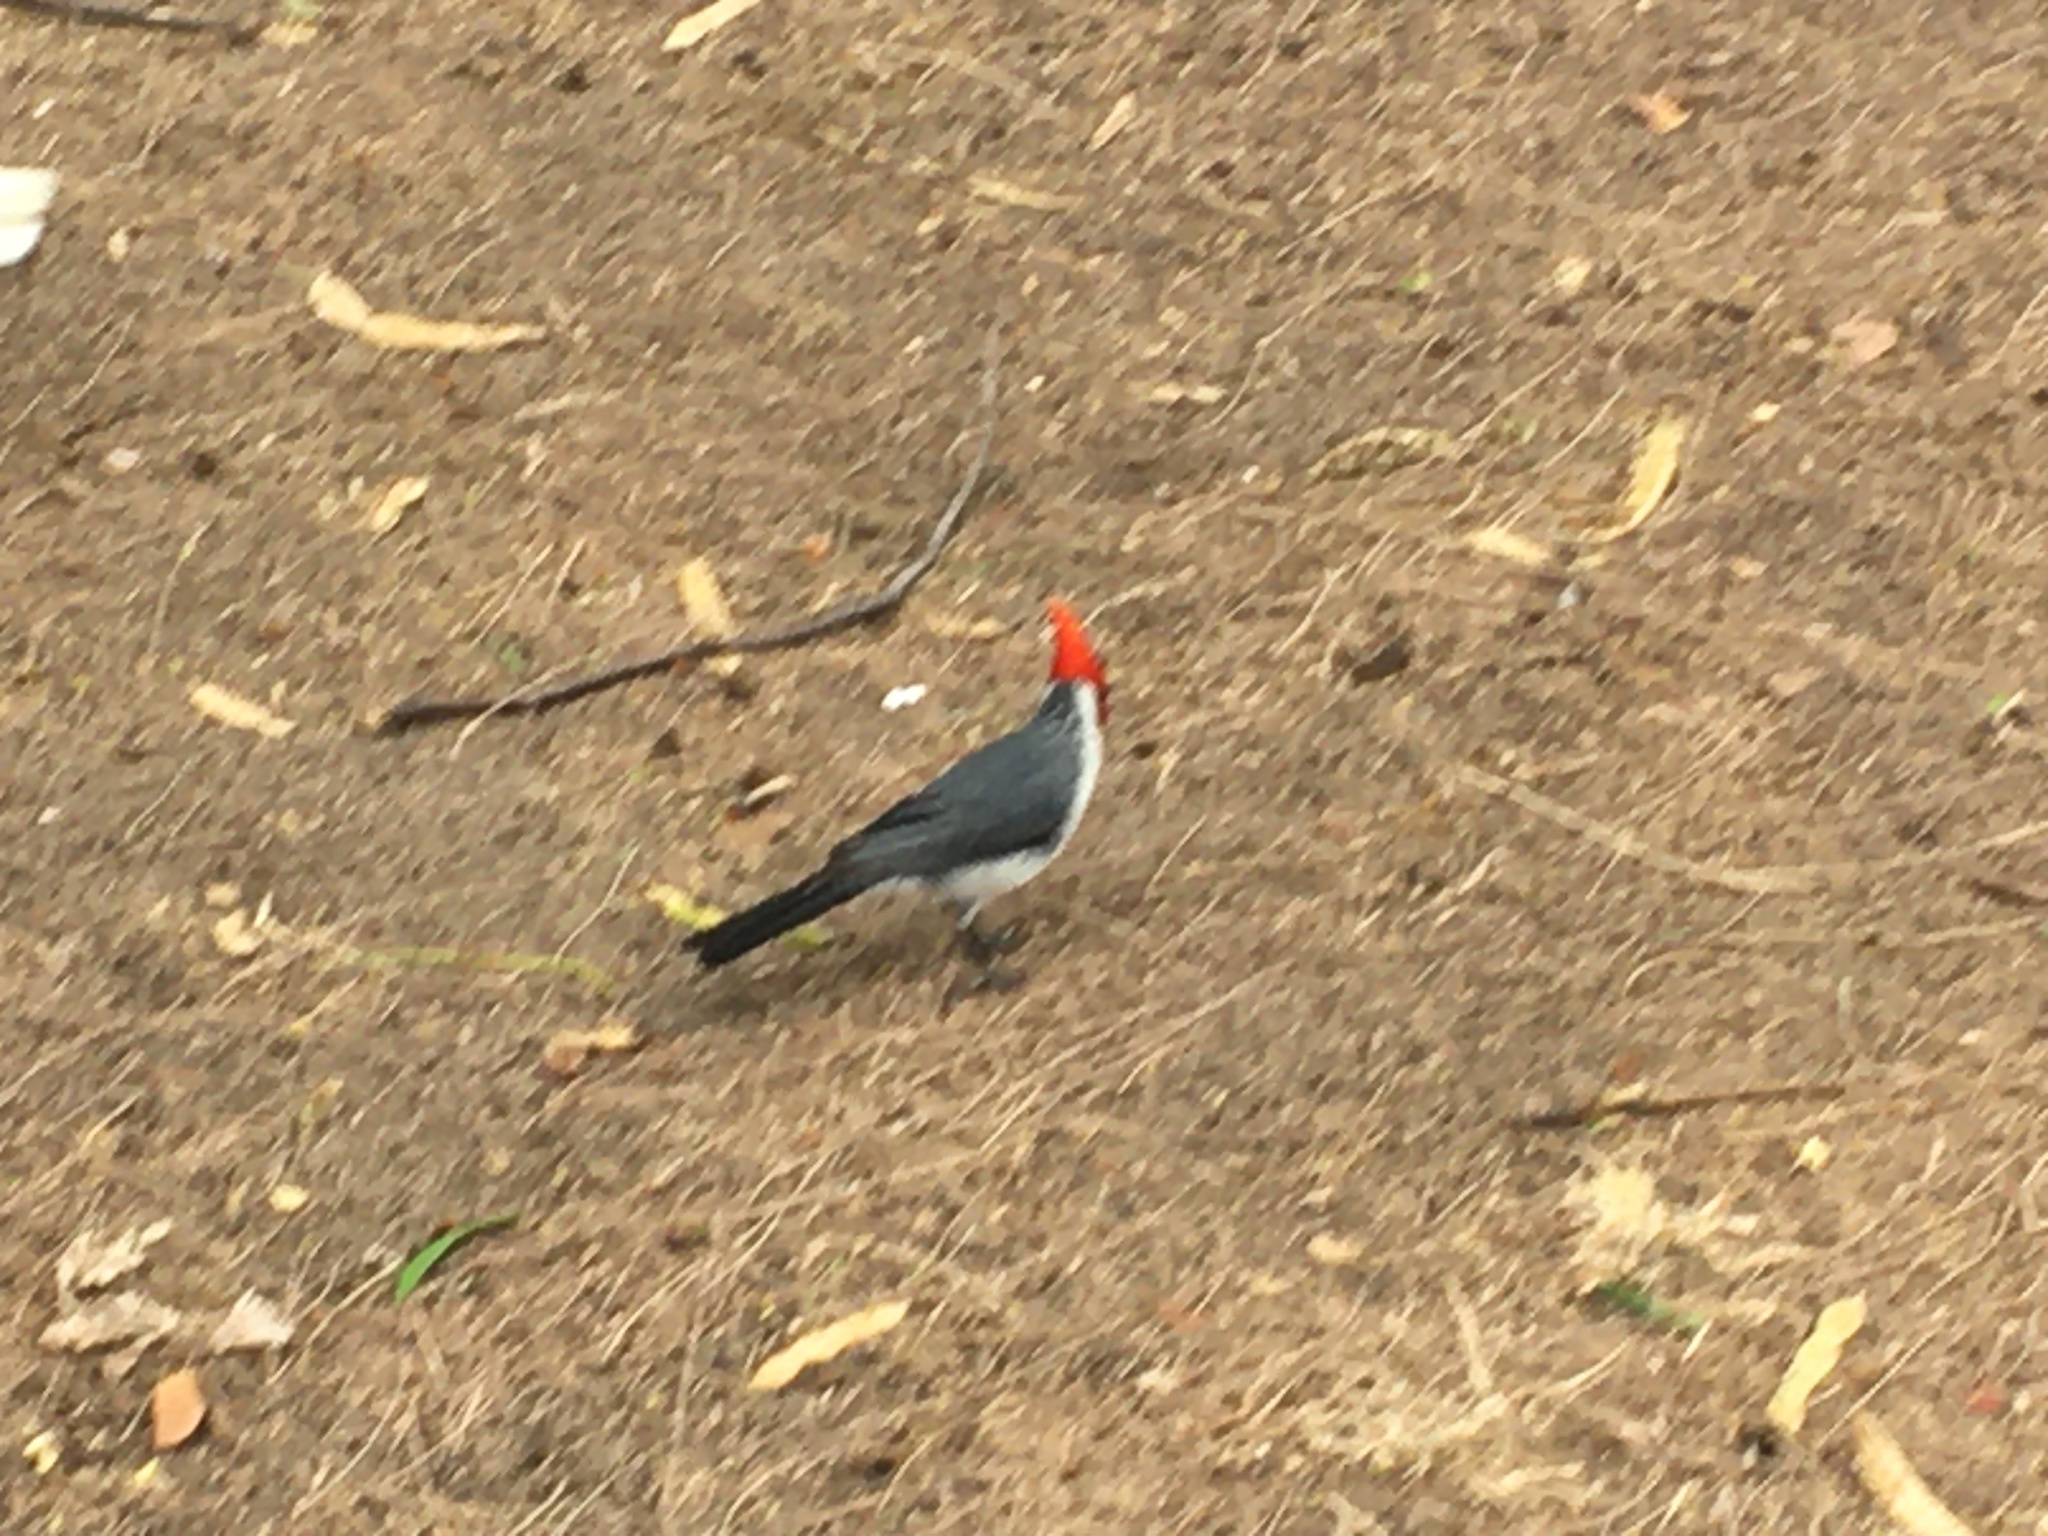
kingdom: Animalia
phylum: Chordata
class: Aves
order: Passeriformes
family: Thraupidae
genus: Paroaria
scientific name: Paroaria coronata
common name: Red-crested cardinal
